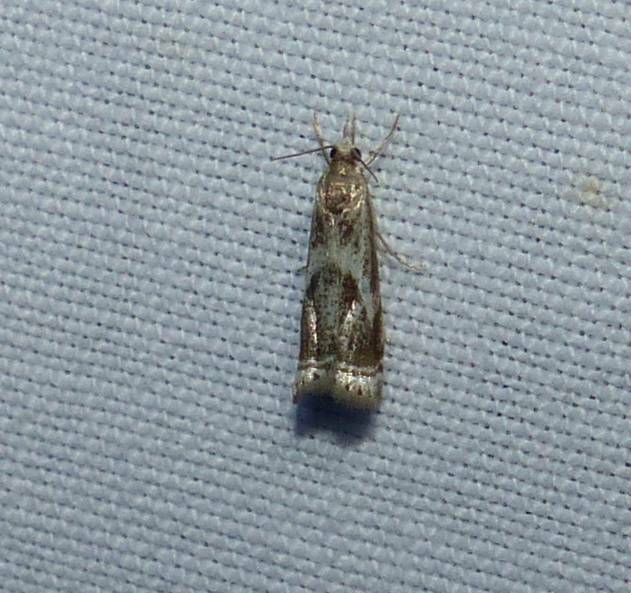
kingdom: Animalia
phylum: Arthropoda
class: Insecta
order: Lepidoptera
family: Crambidae
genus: Microcrambus
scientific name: Microcrambus elegans
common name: Elegant grass-veneer
